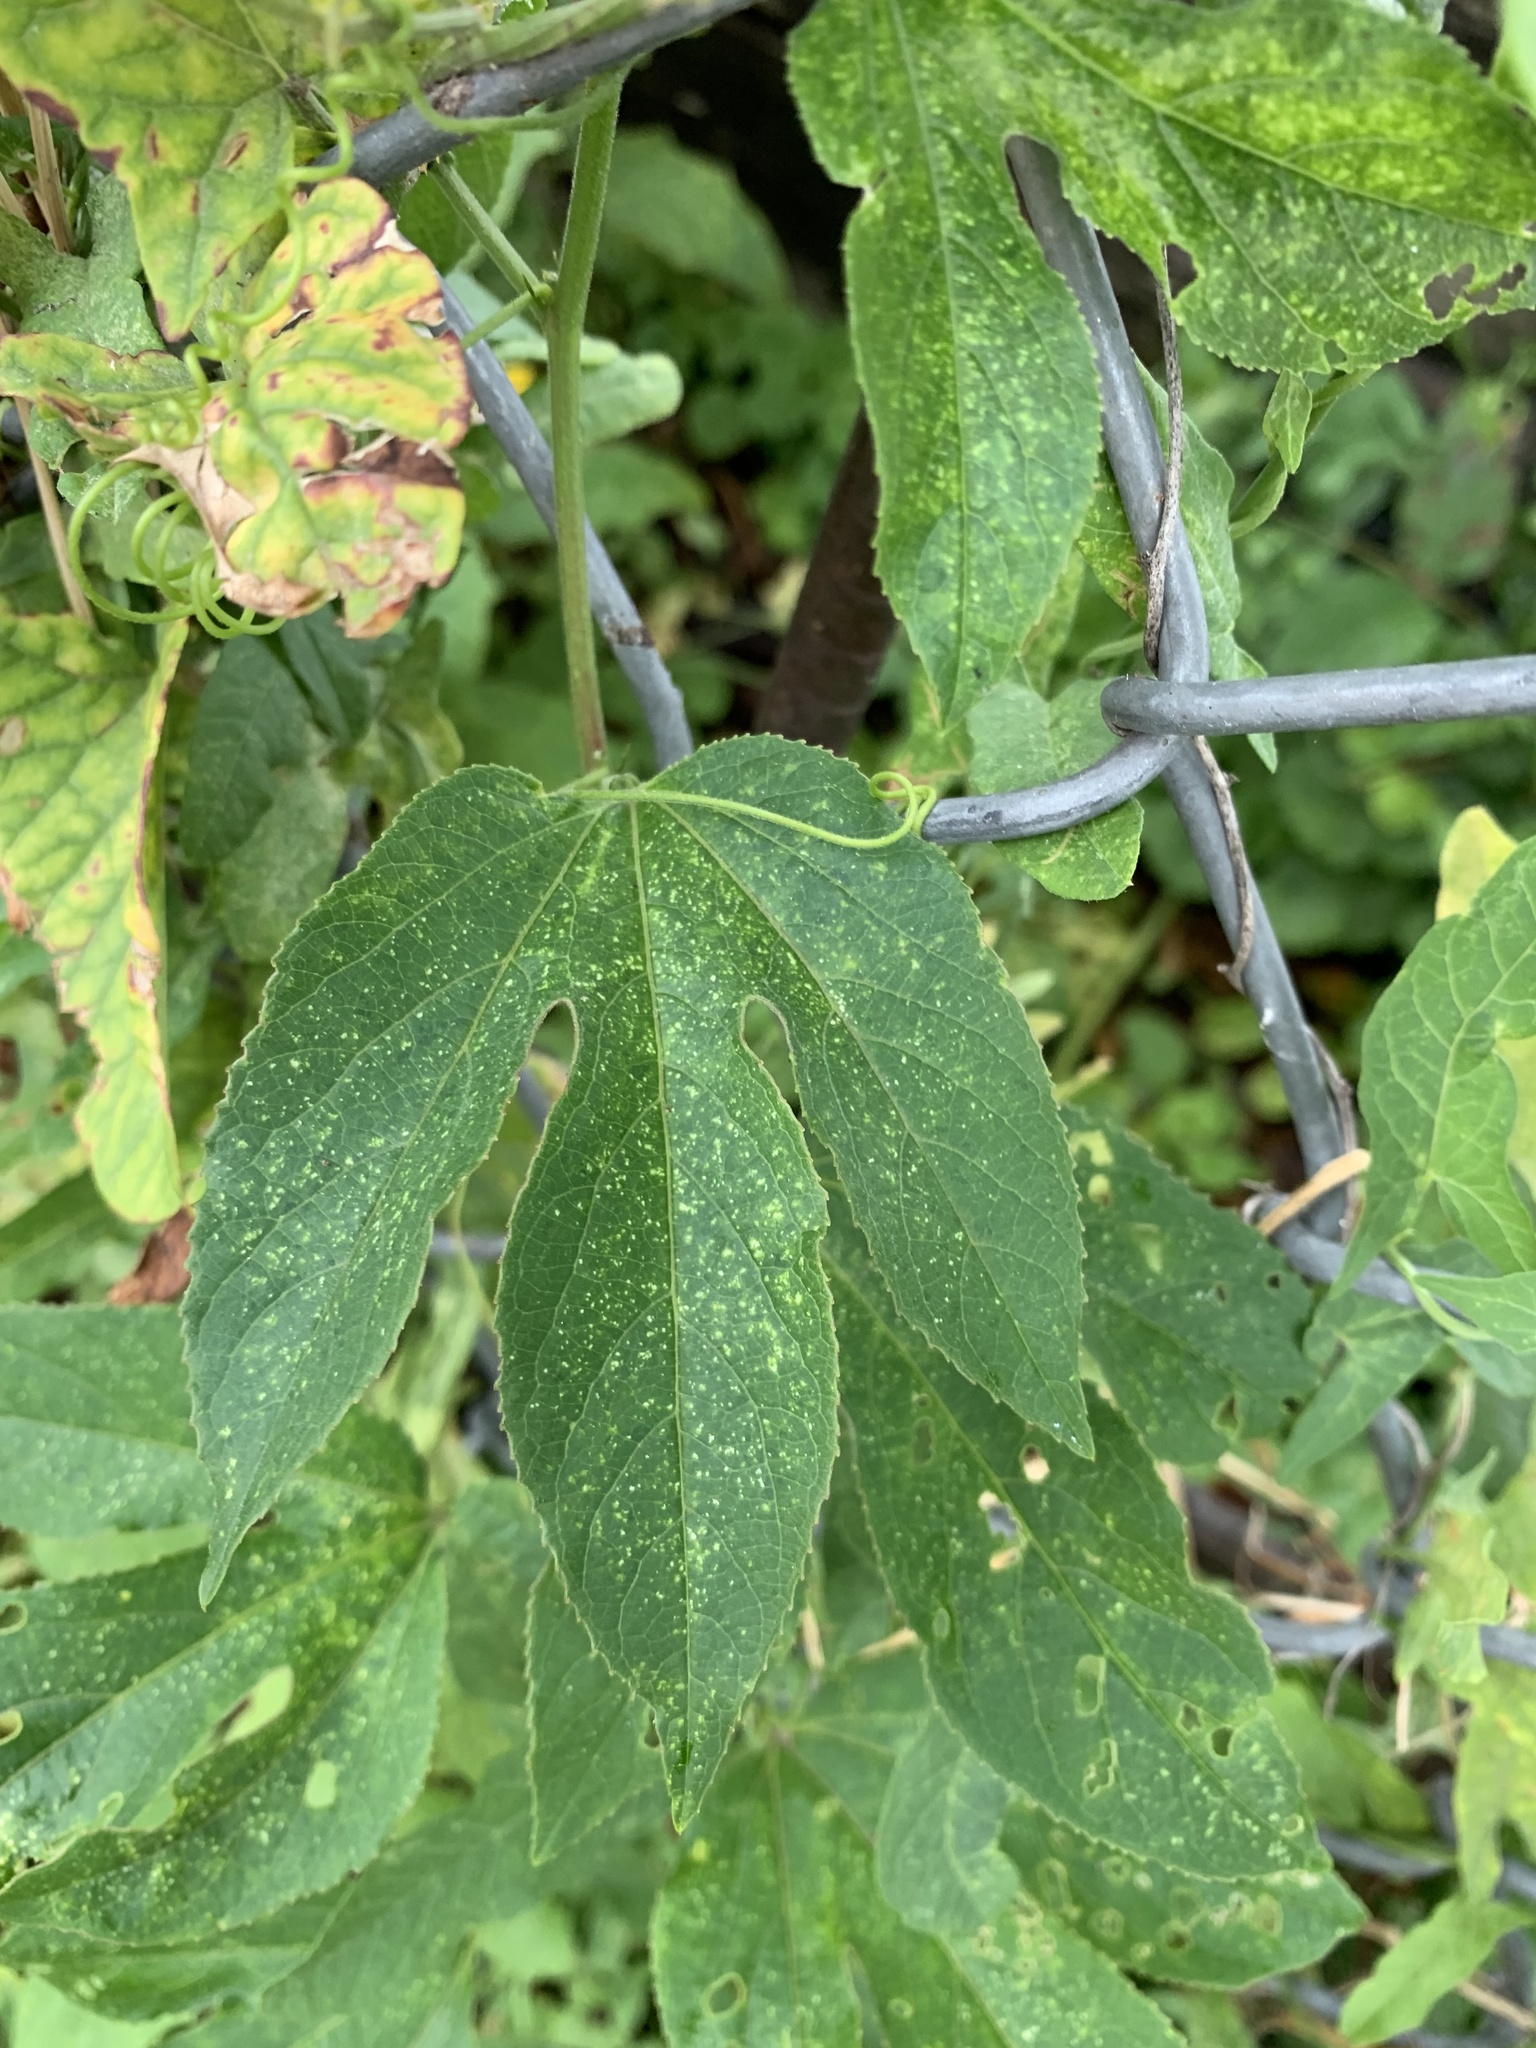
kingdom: Plantae
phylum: Tracheophyta
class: Magnoliopsida
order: Malpighiales
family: Passifloraceae
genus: Passiflora
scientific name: Passiflora incarnata
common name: Apricot-vine
